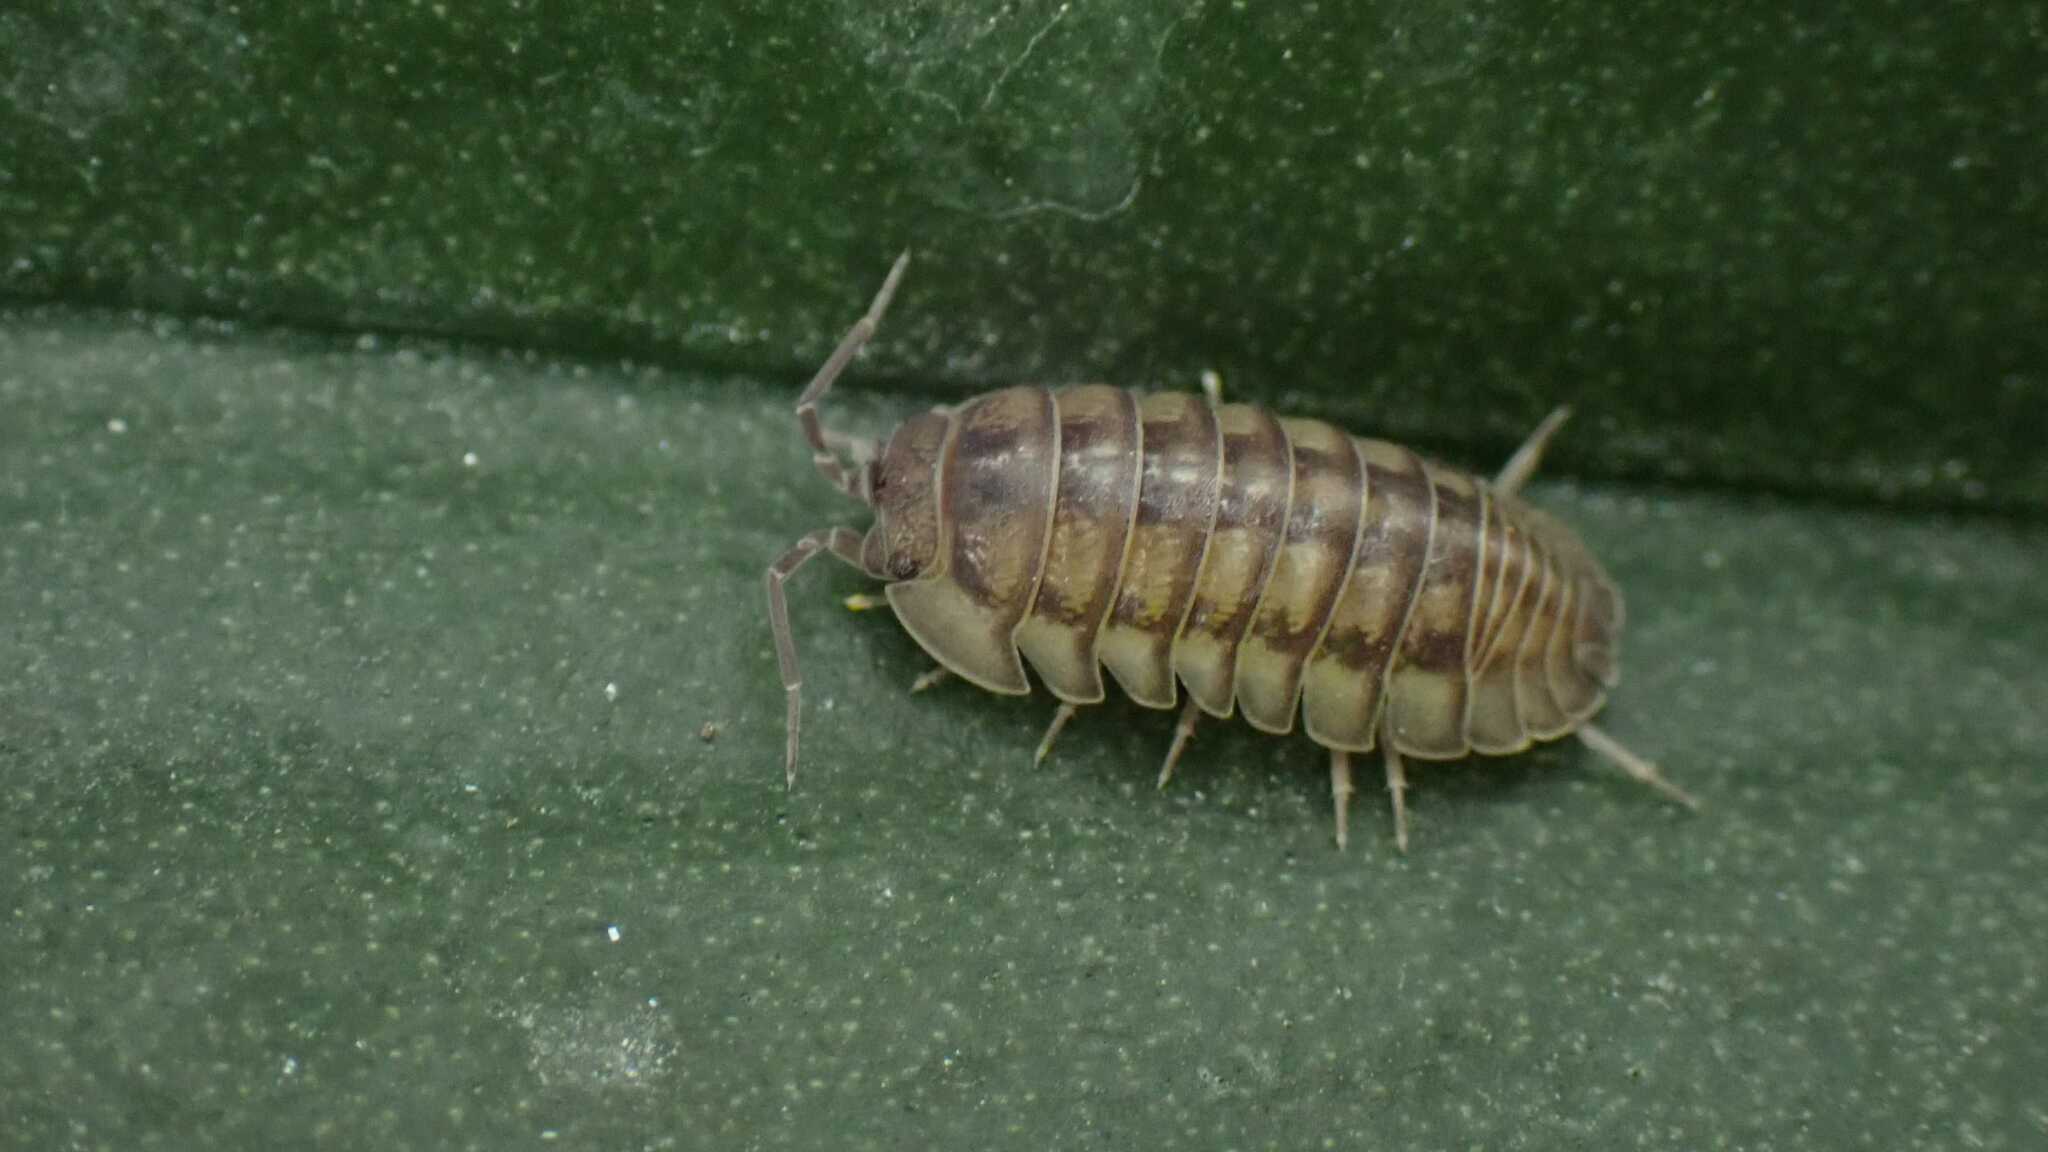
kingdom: Animalia
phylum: Arthropoda
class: Malacostraca
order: Isopoda
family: Armadillidiidae
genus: Armadillidium
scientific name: Armadillidium nasatum
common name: Isopod
